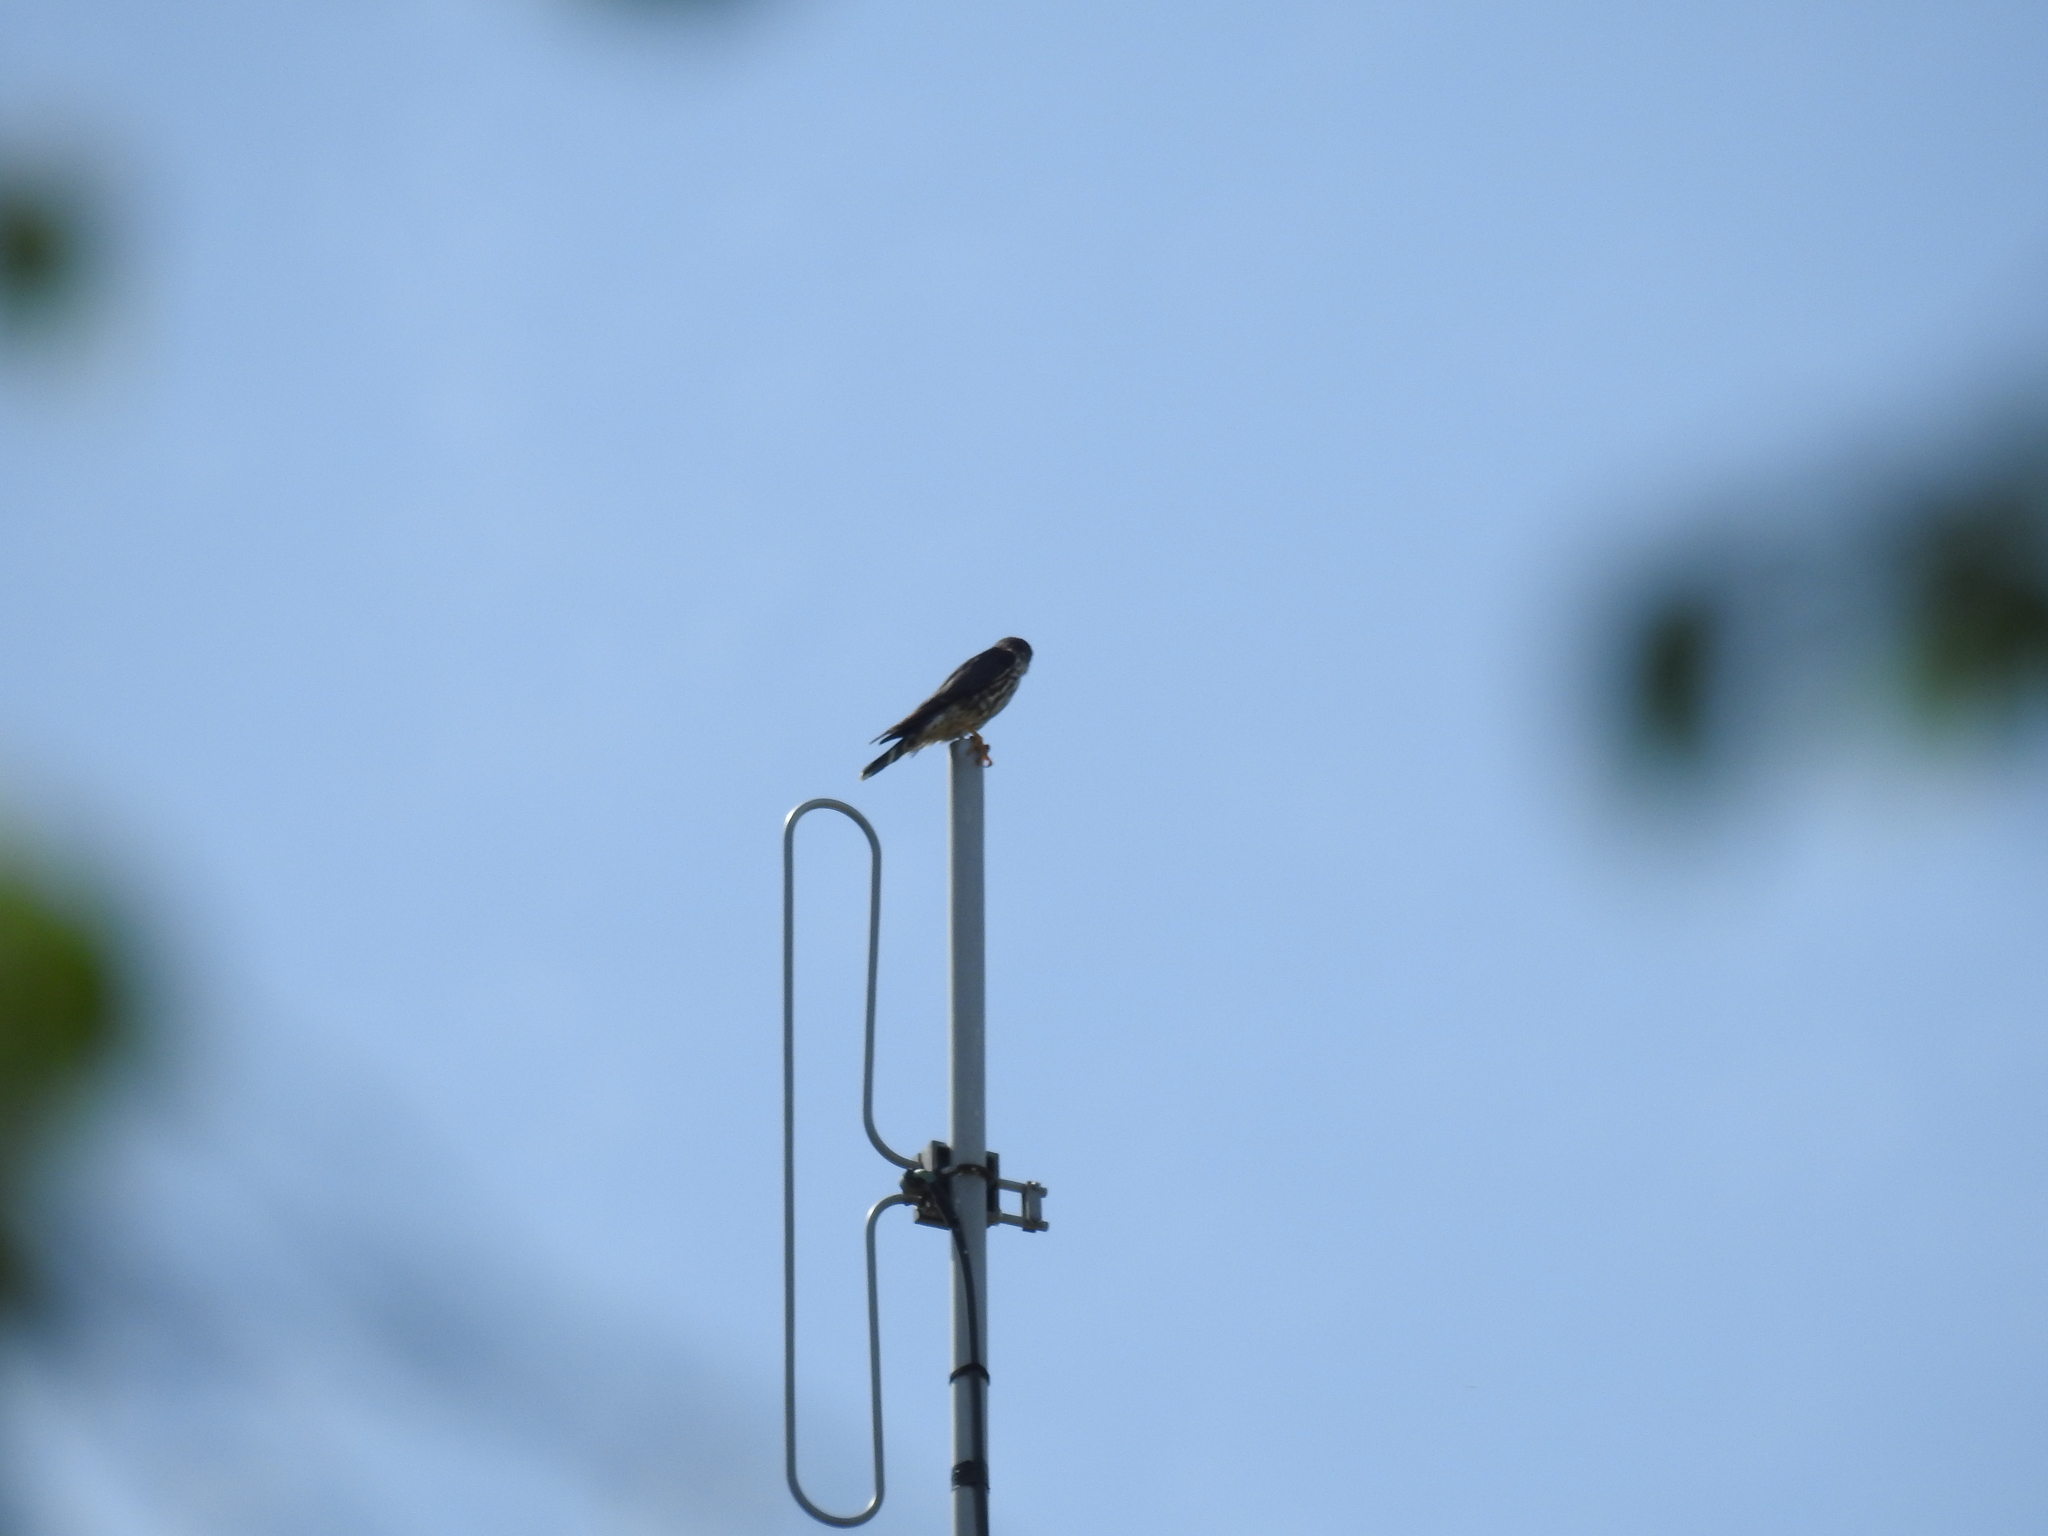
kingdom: Animalia
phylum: Chordata
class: Aves
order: Falconiformes
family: Falconidae
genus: Falco
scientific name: Falco columbarius
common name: Merlin
